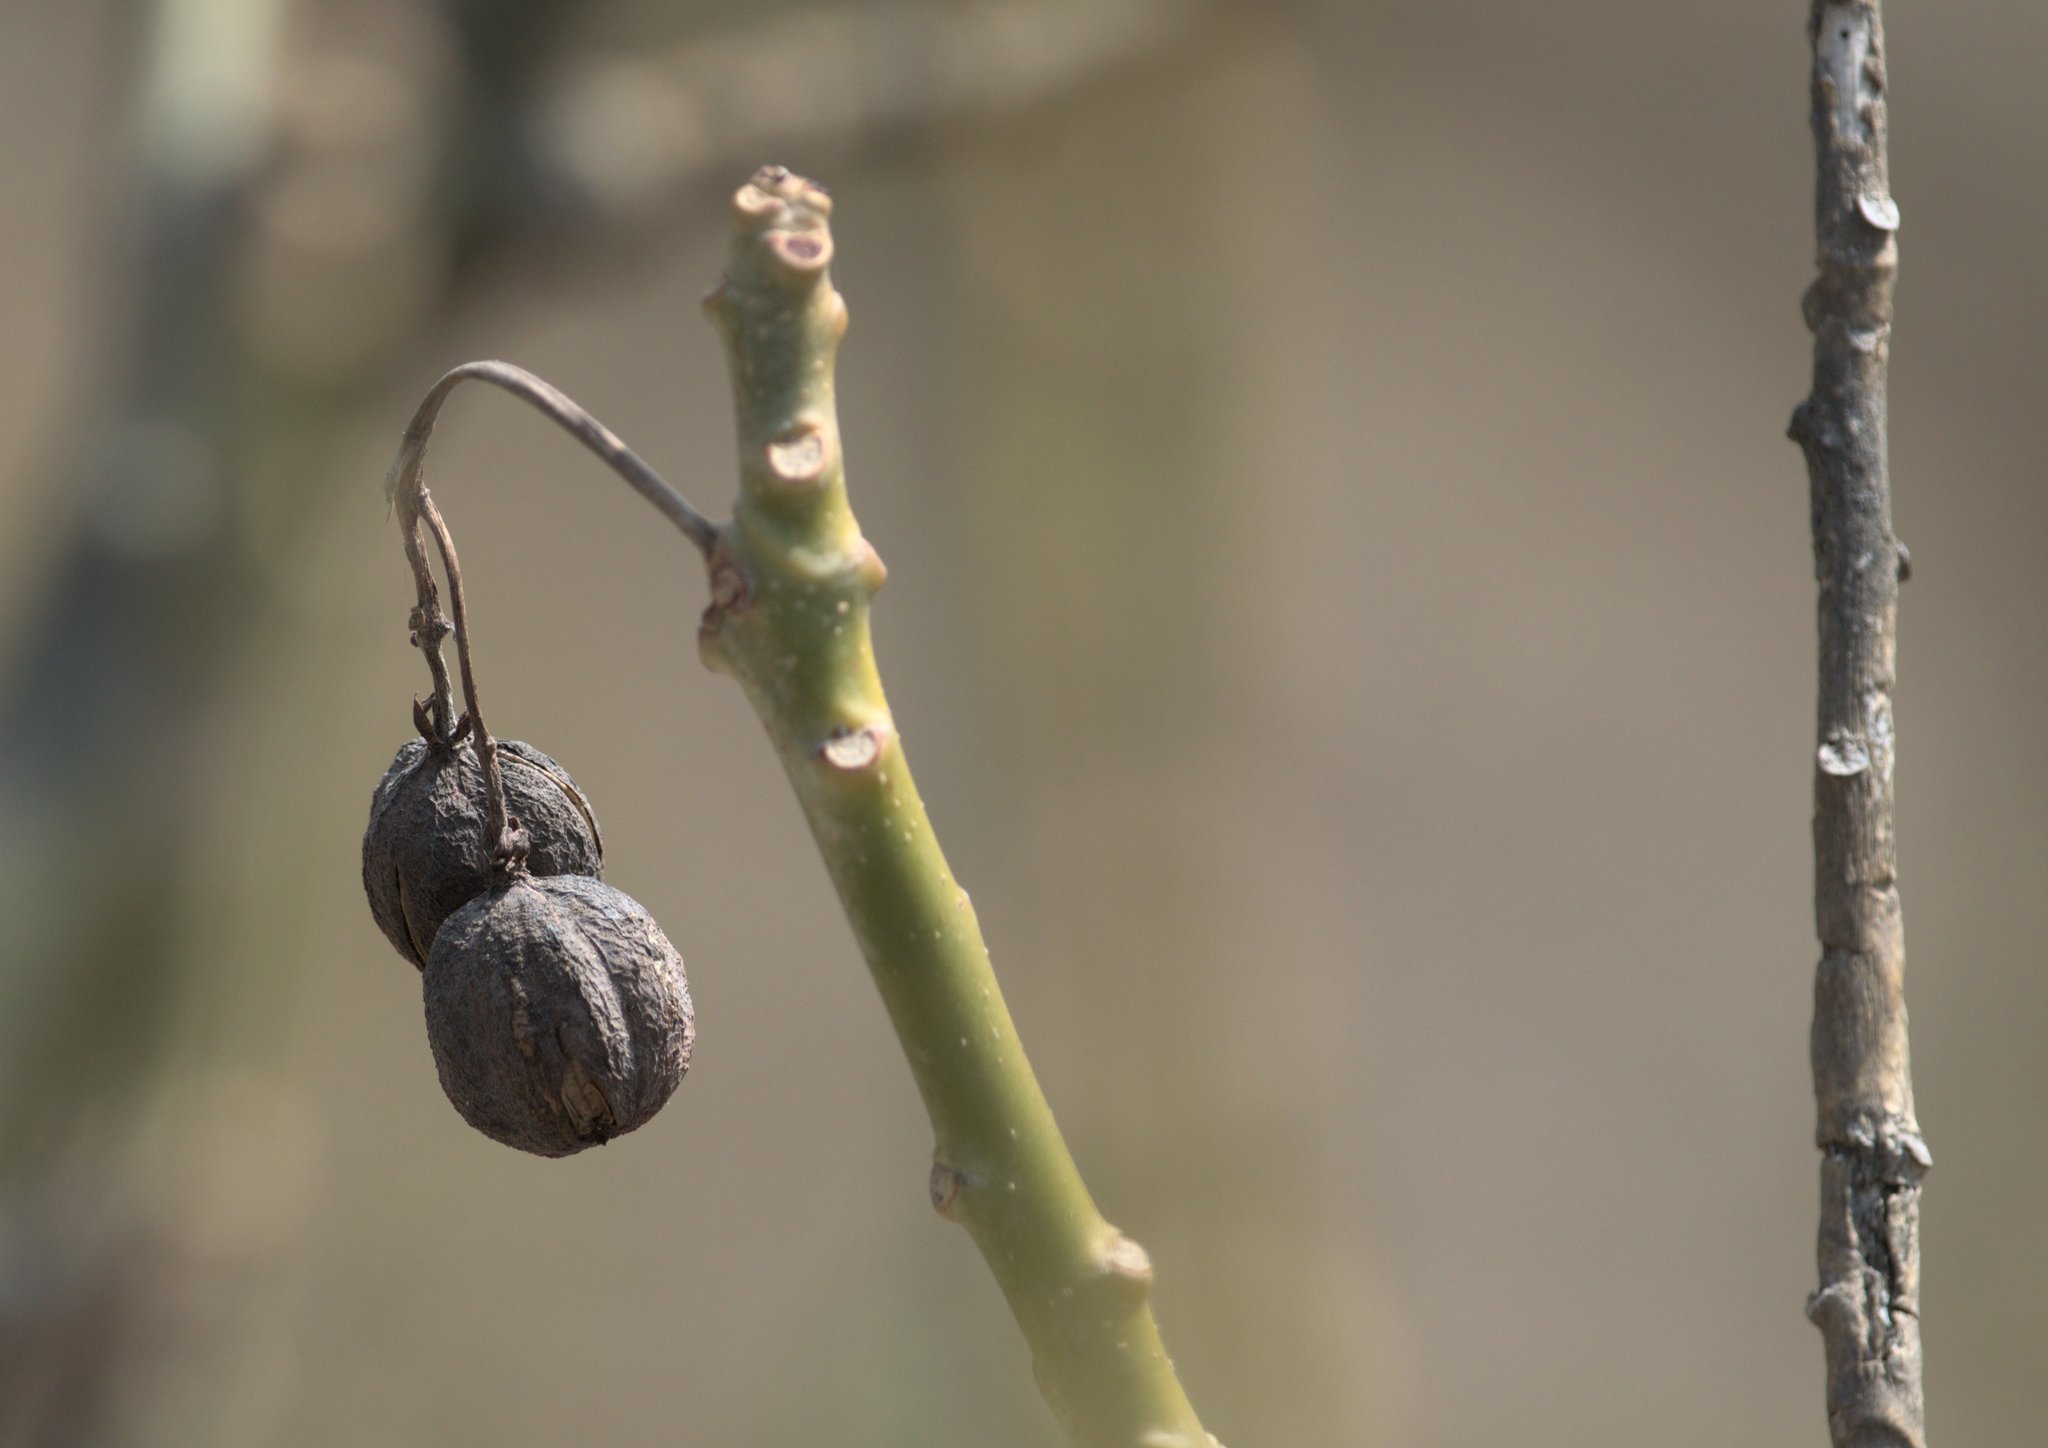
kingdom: Plantae
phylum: Tracheophyta
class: Magnoliopsida
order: Malpighiales
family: Euphorbiaceae
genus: Jatropha
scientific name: Jatropha curcas
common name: Barbados nut
